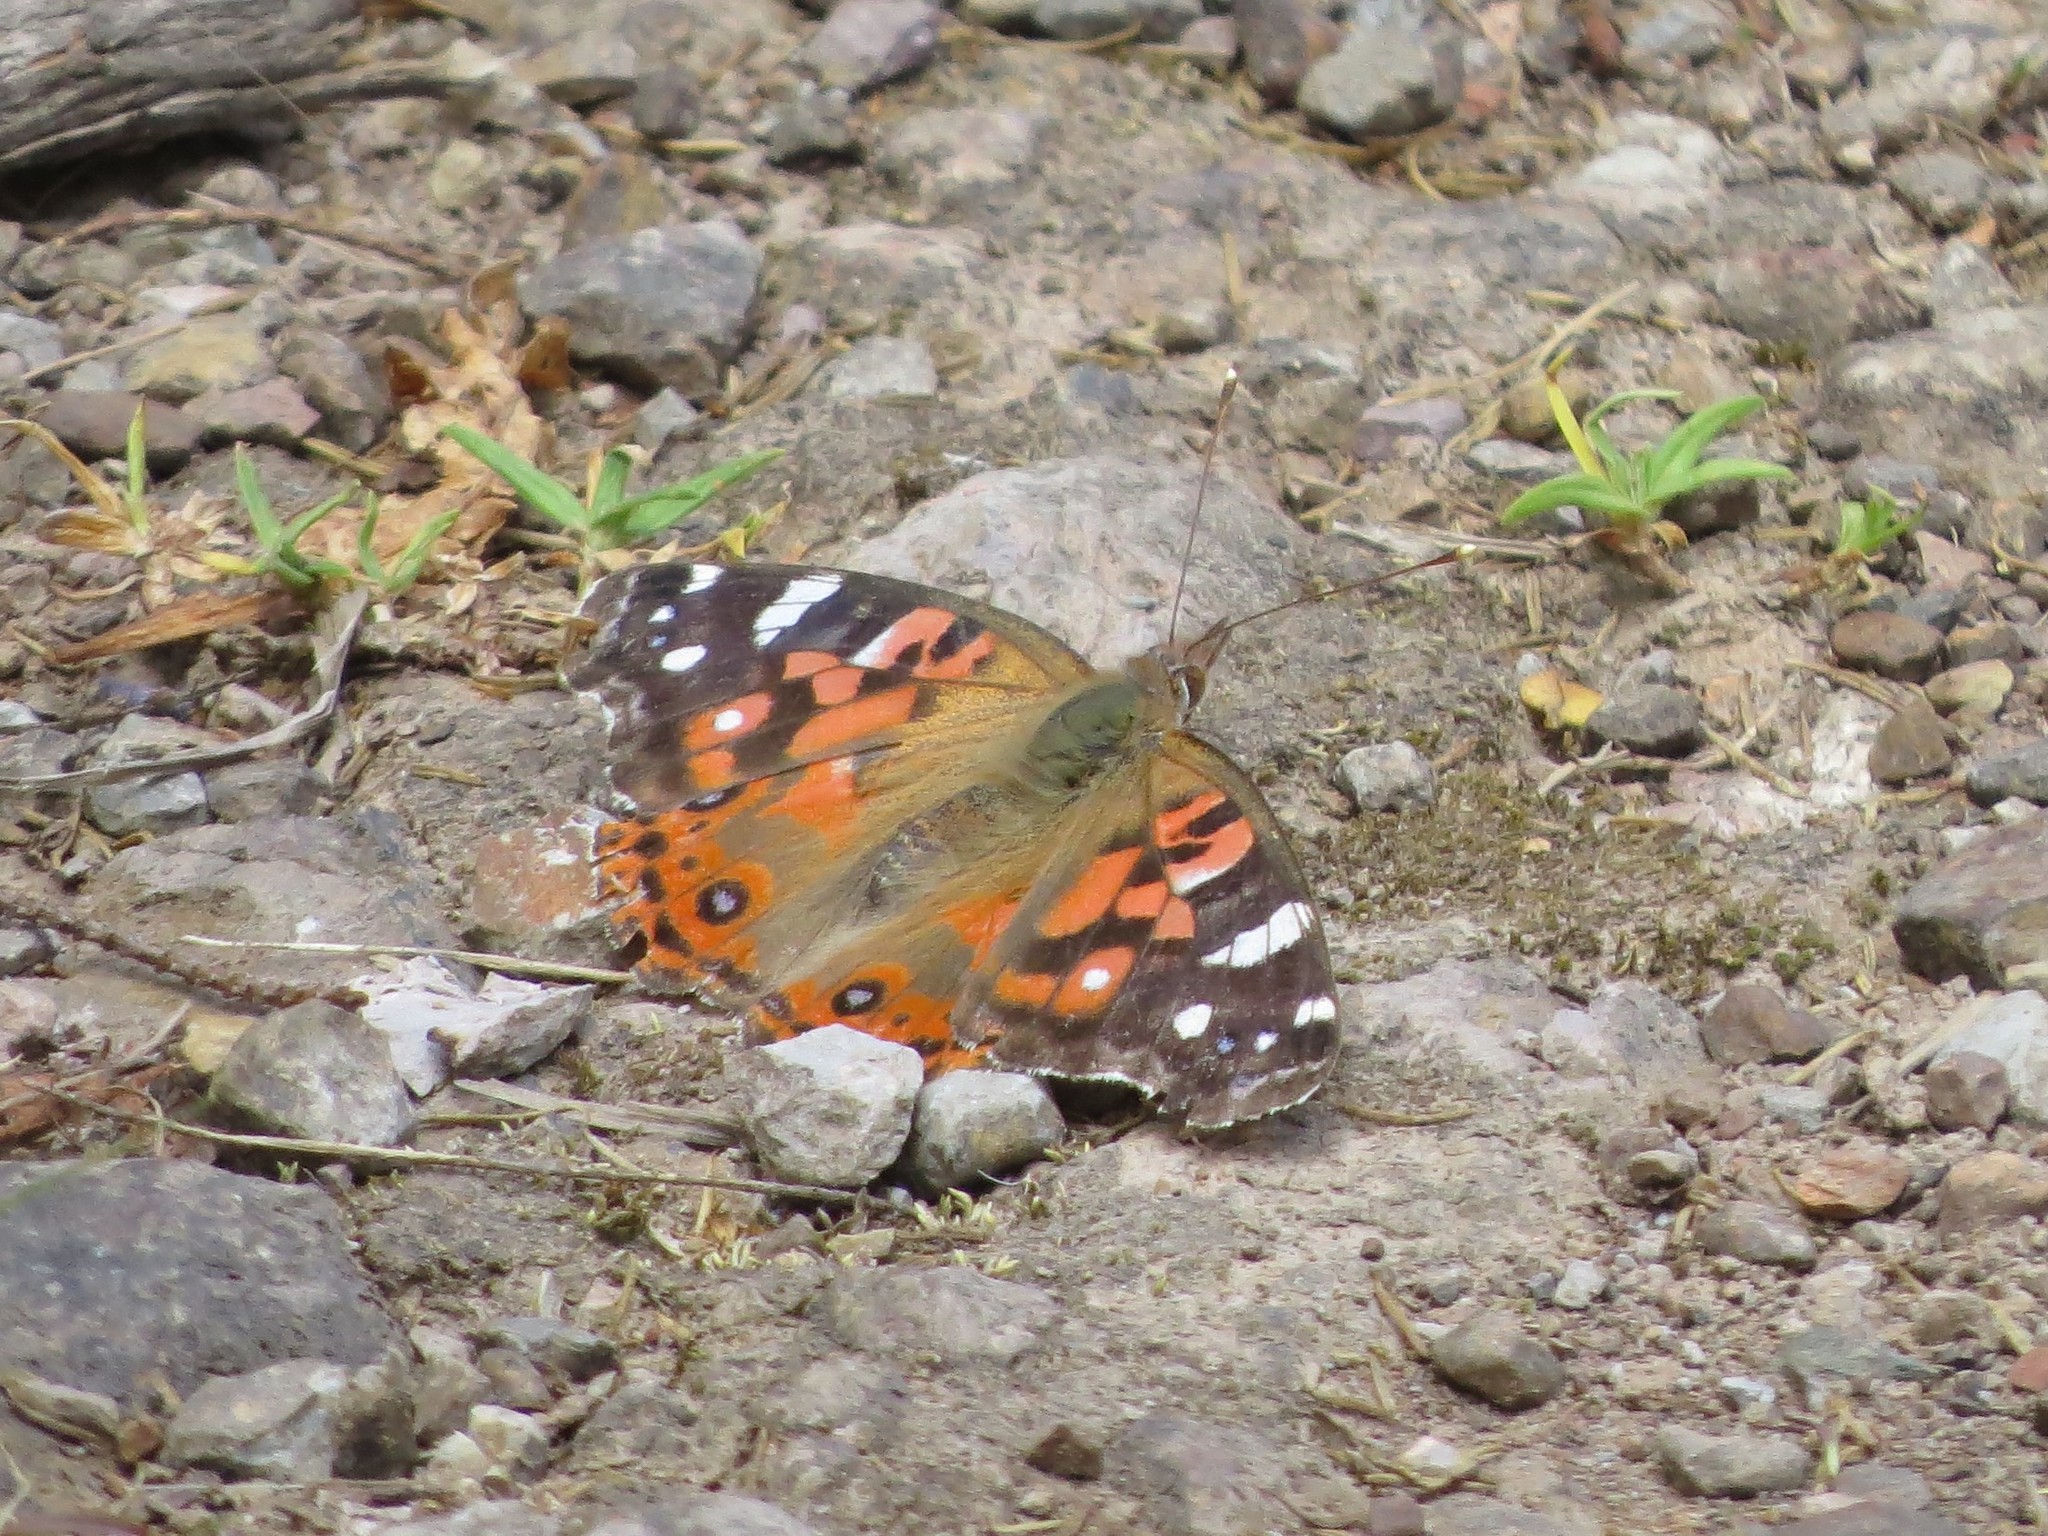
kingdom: Animalia
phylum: Arthropoda
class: Insecta
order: Lepidoptera
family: Nymphalidae
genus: Vanessa
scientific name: Vanessa braziliensis
